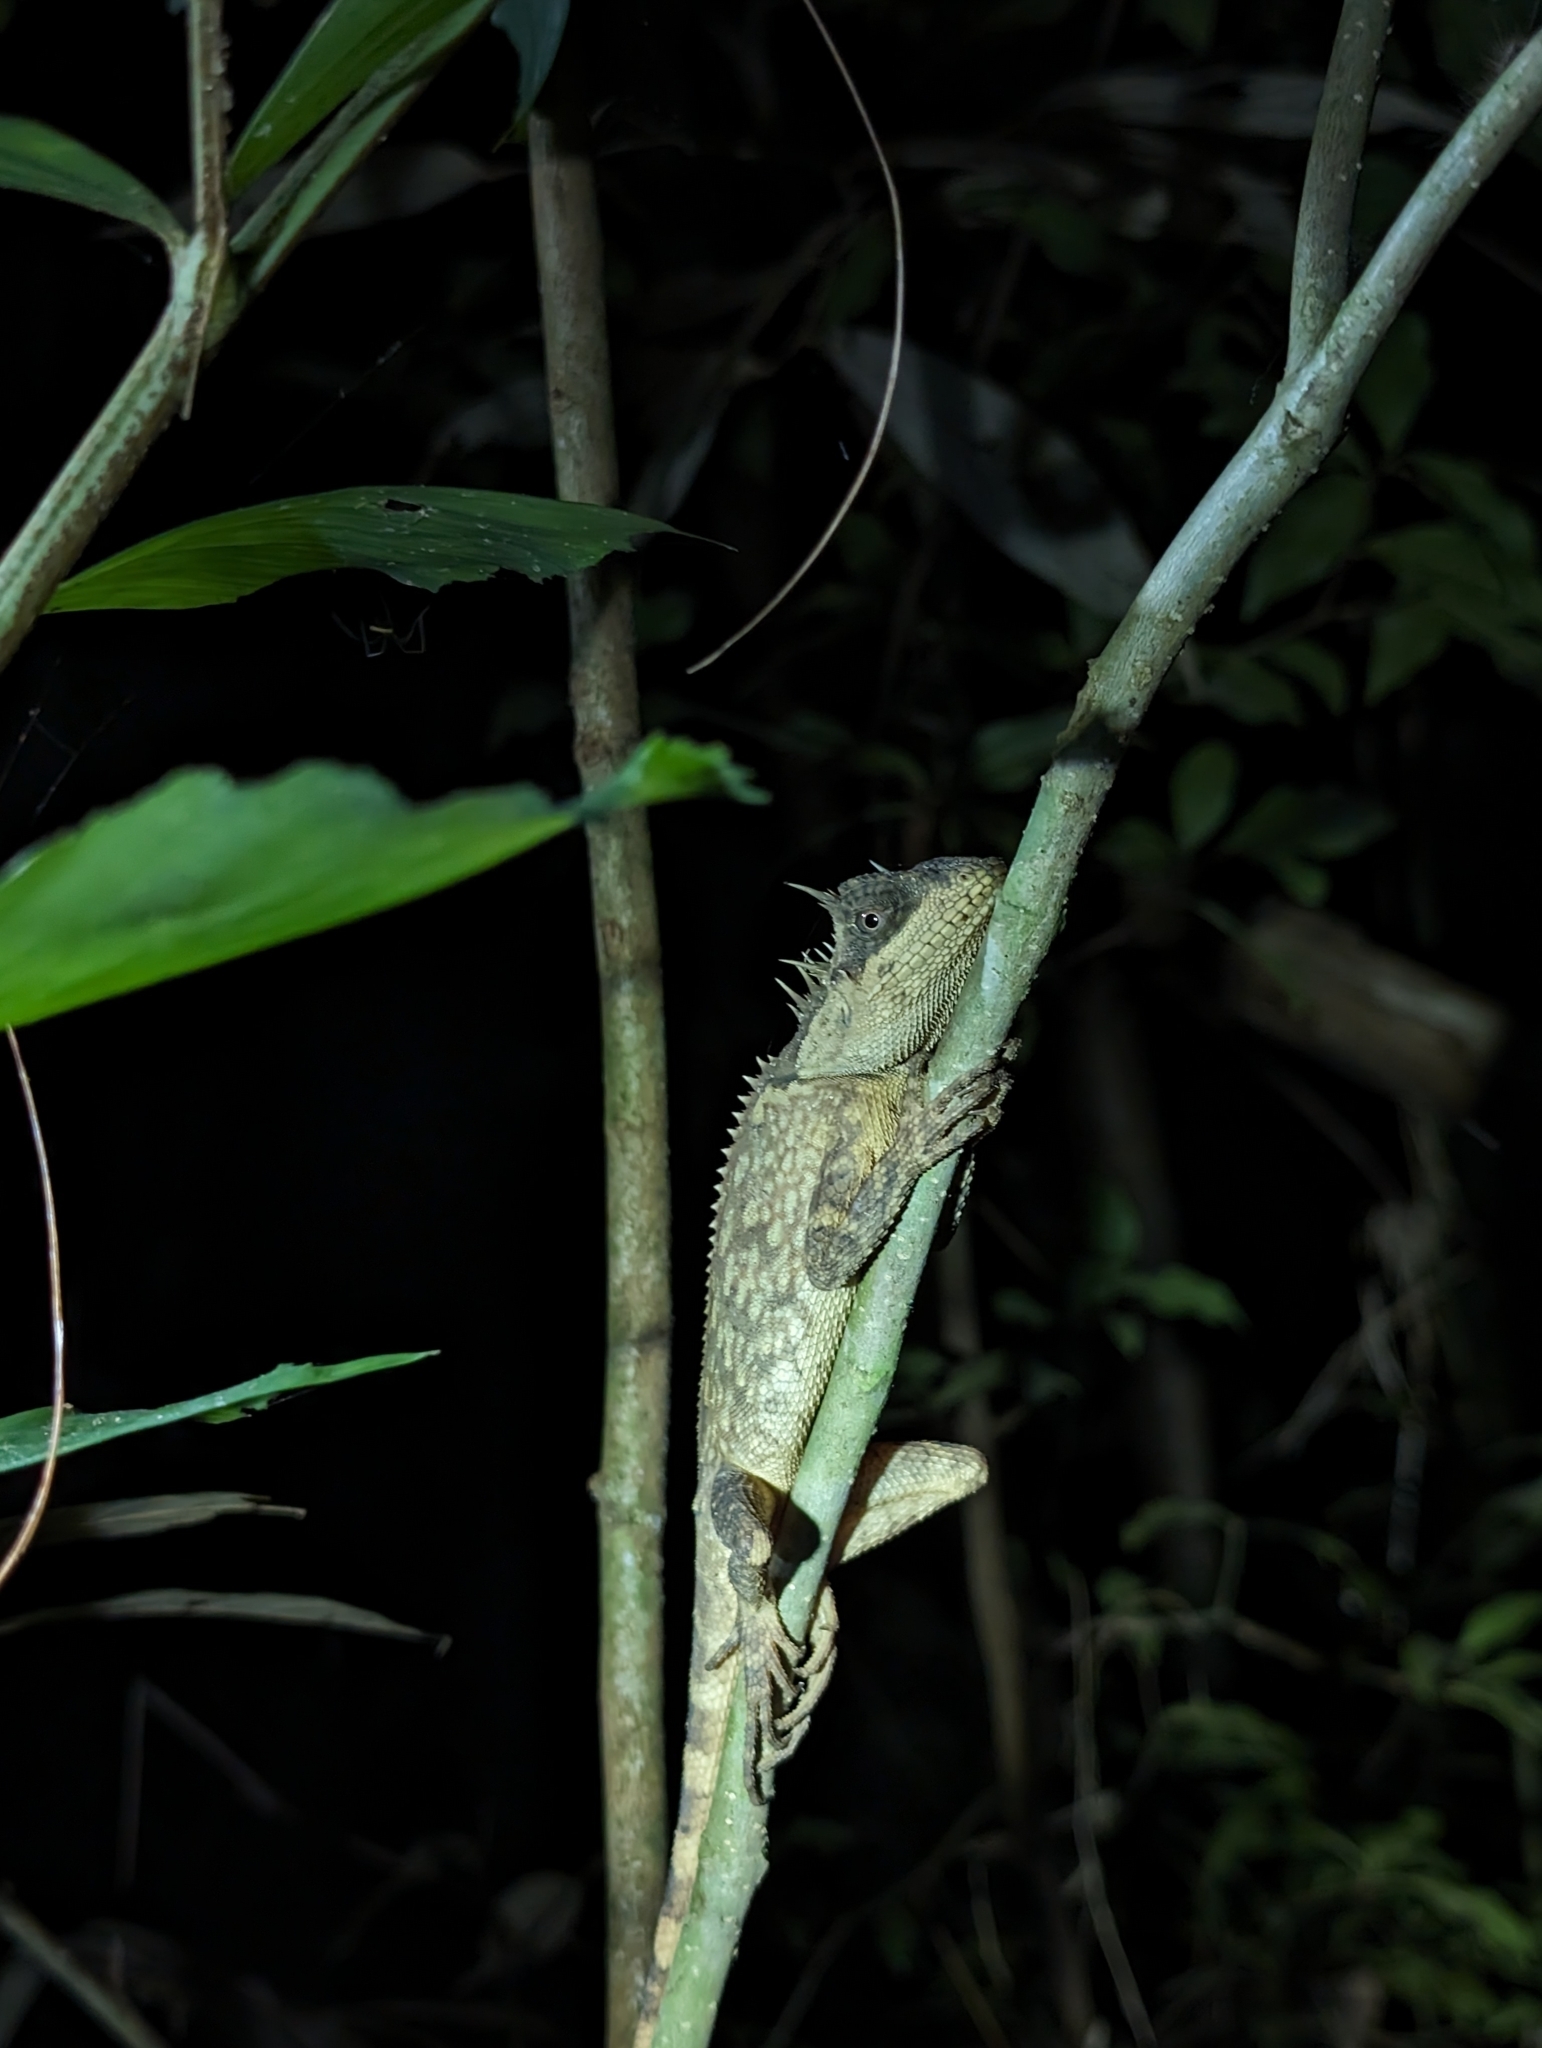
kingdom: Animalia
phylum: Chordata
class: Squamata
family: Agamidae
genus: Acanthosaura
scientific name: Acanthosaura phuketensis
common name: Phuket horned tree agamid
